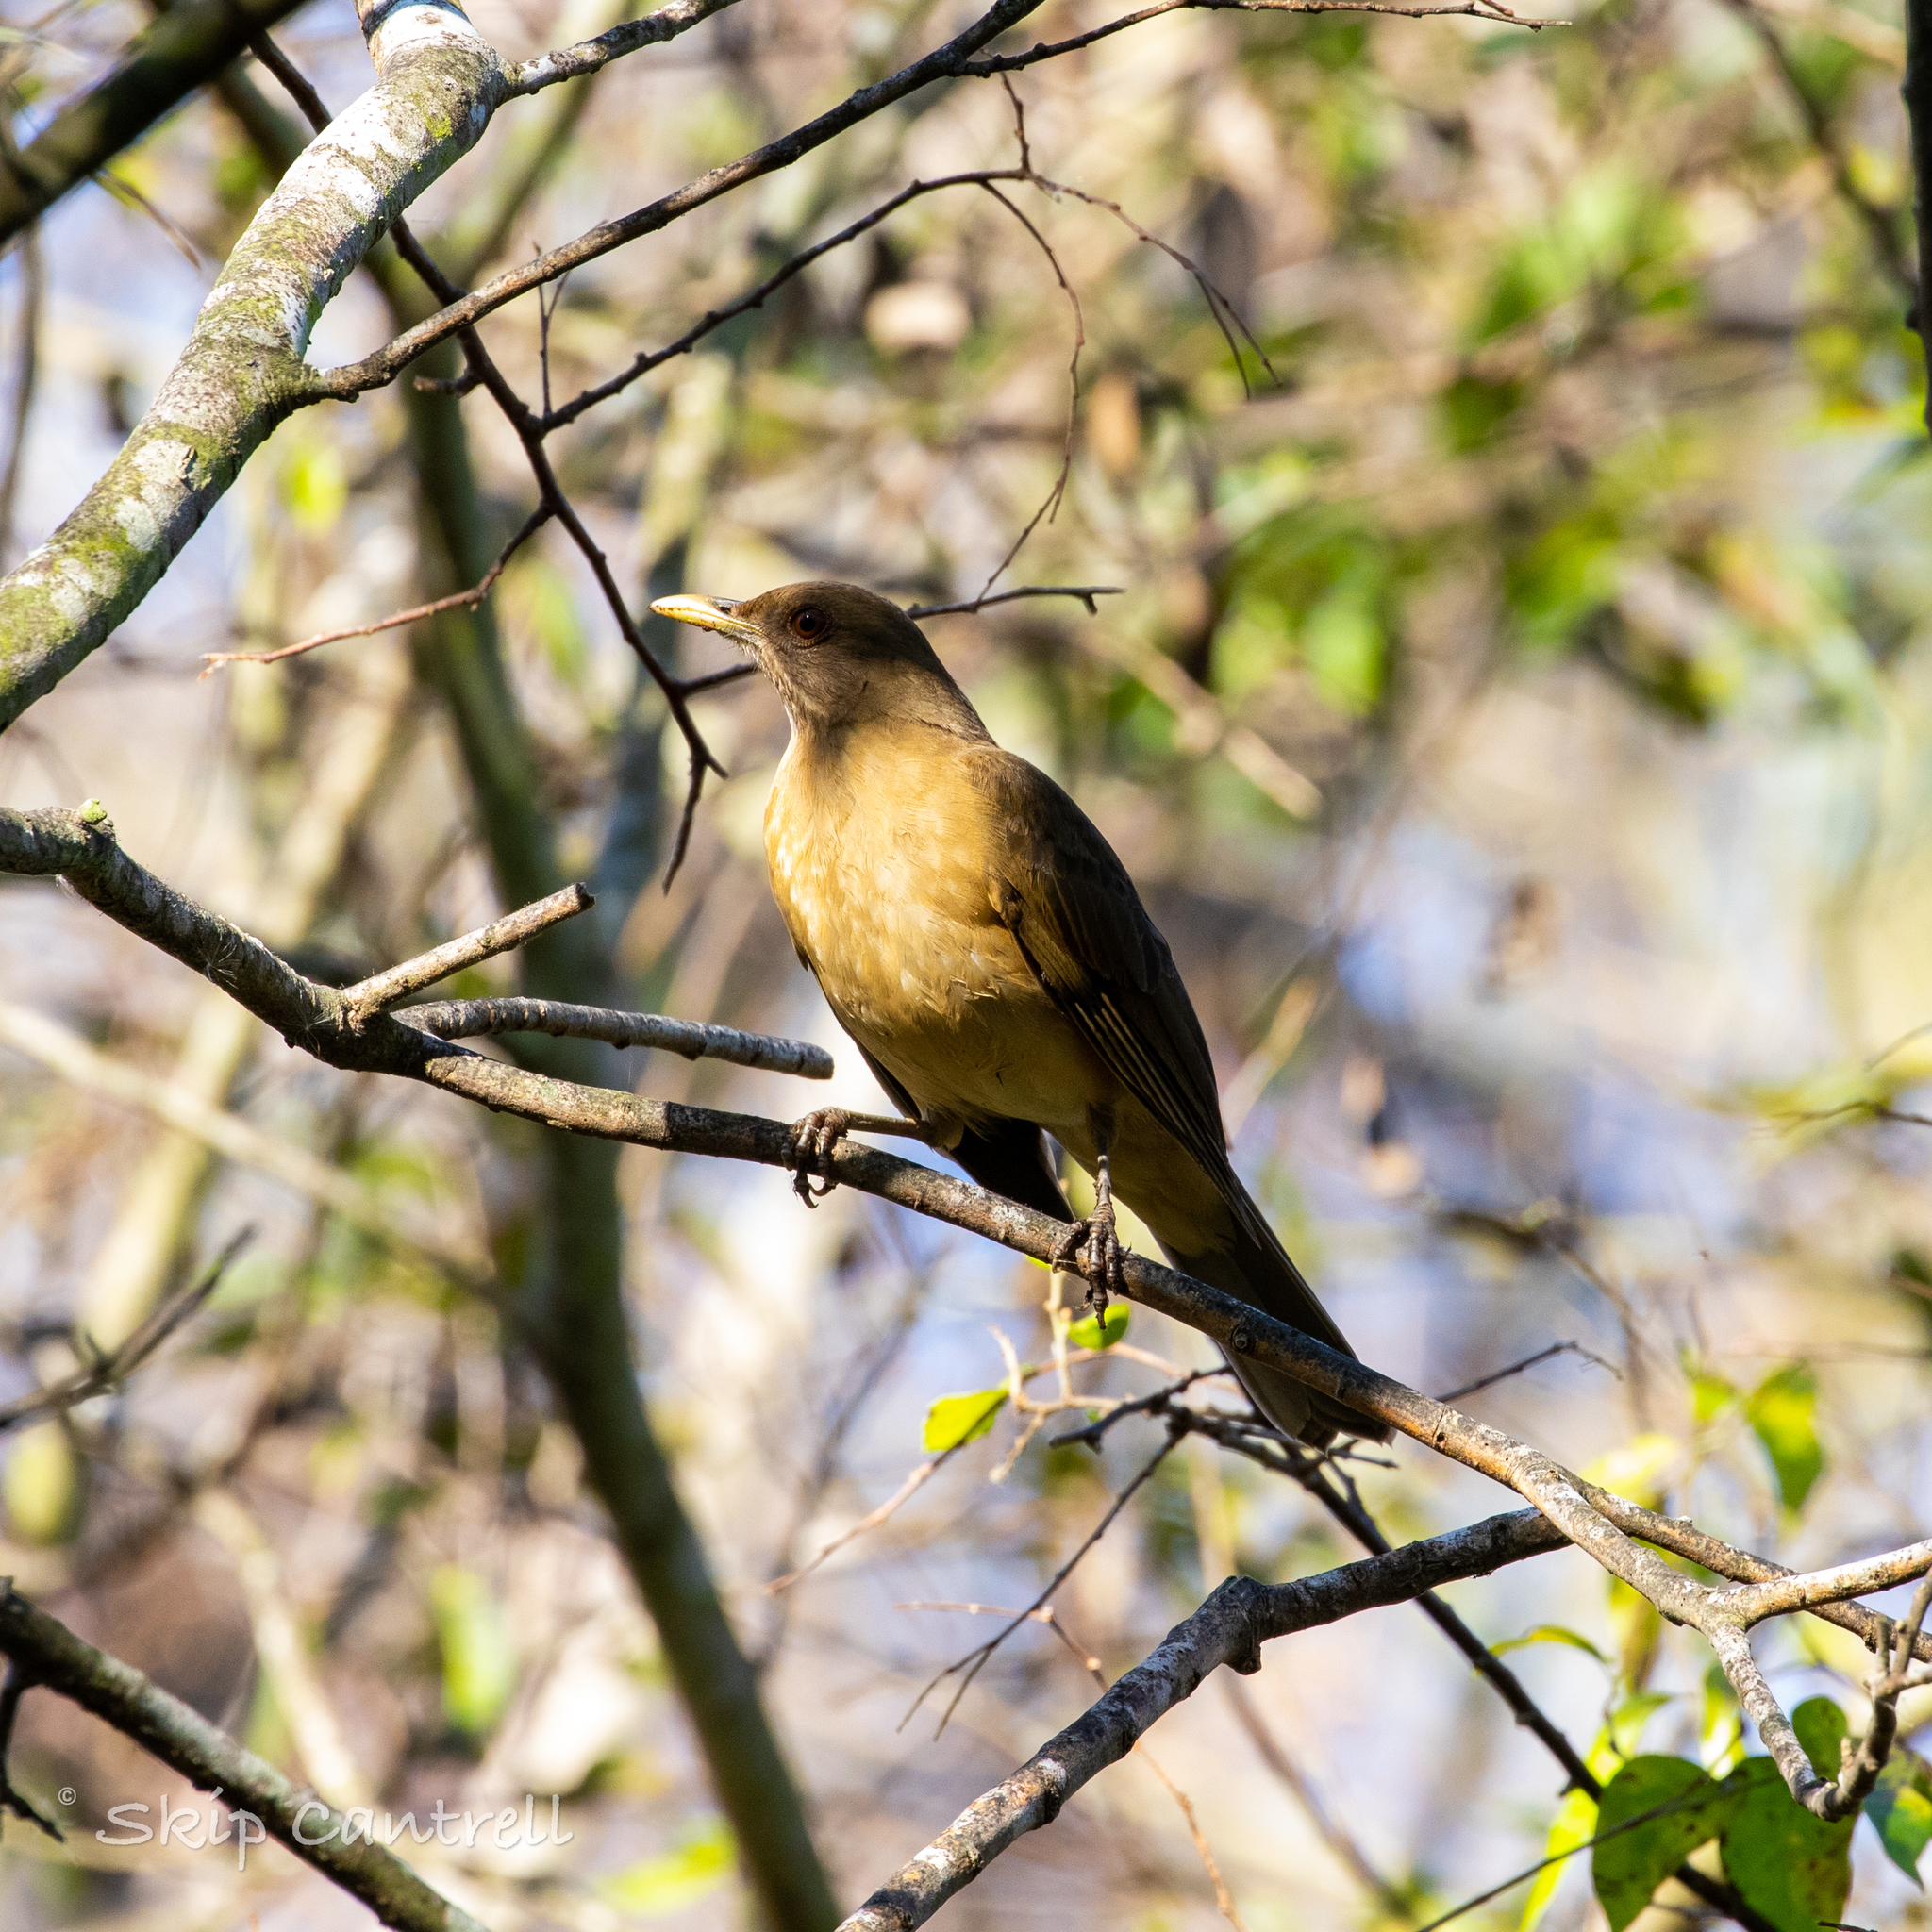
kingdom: Animalia
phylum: Chordata
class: Aves
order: Passeriformes
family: Turdidae
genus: Turdus
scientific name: Turdus grayi
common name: Clay-colored thrush
